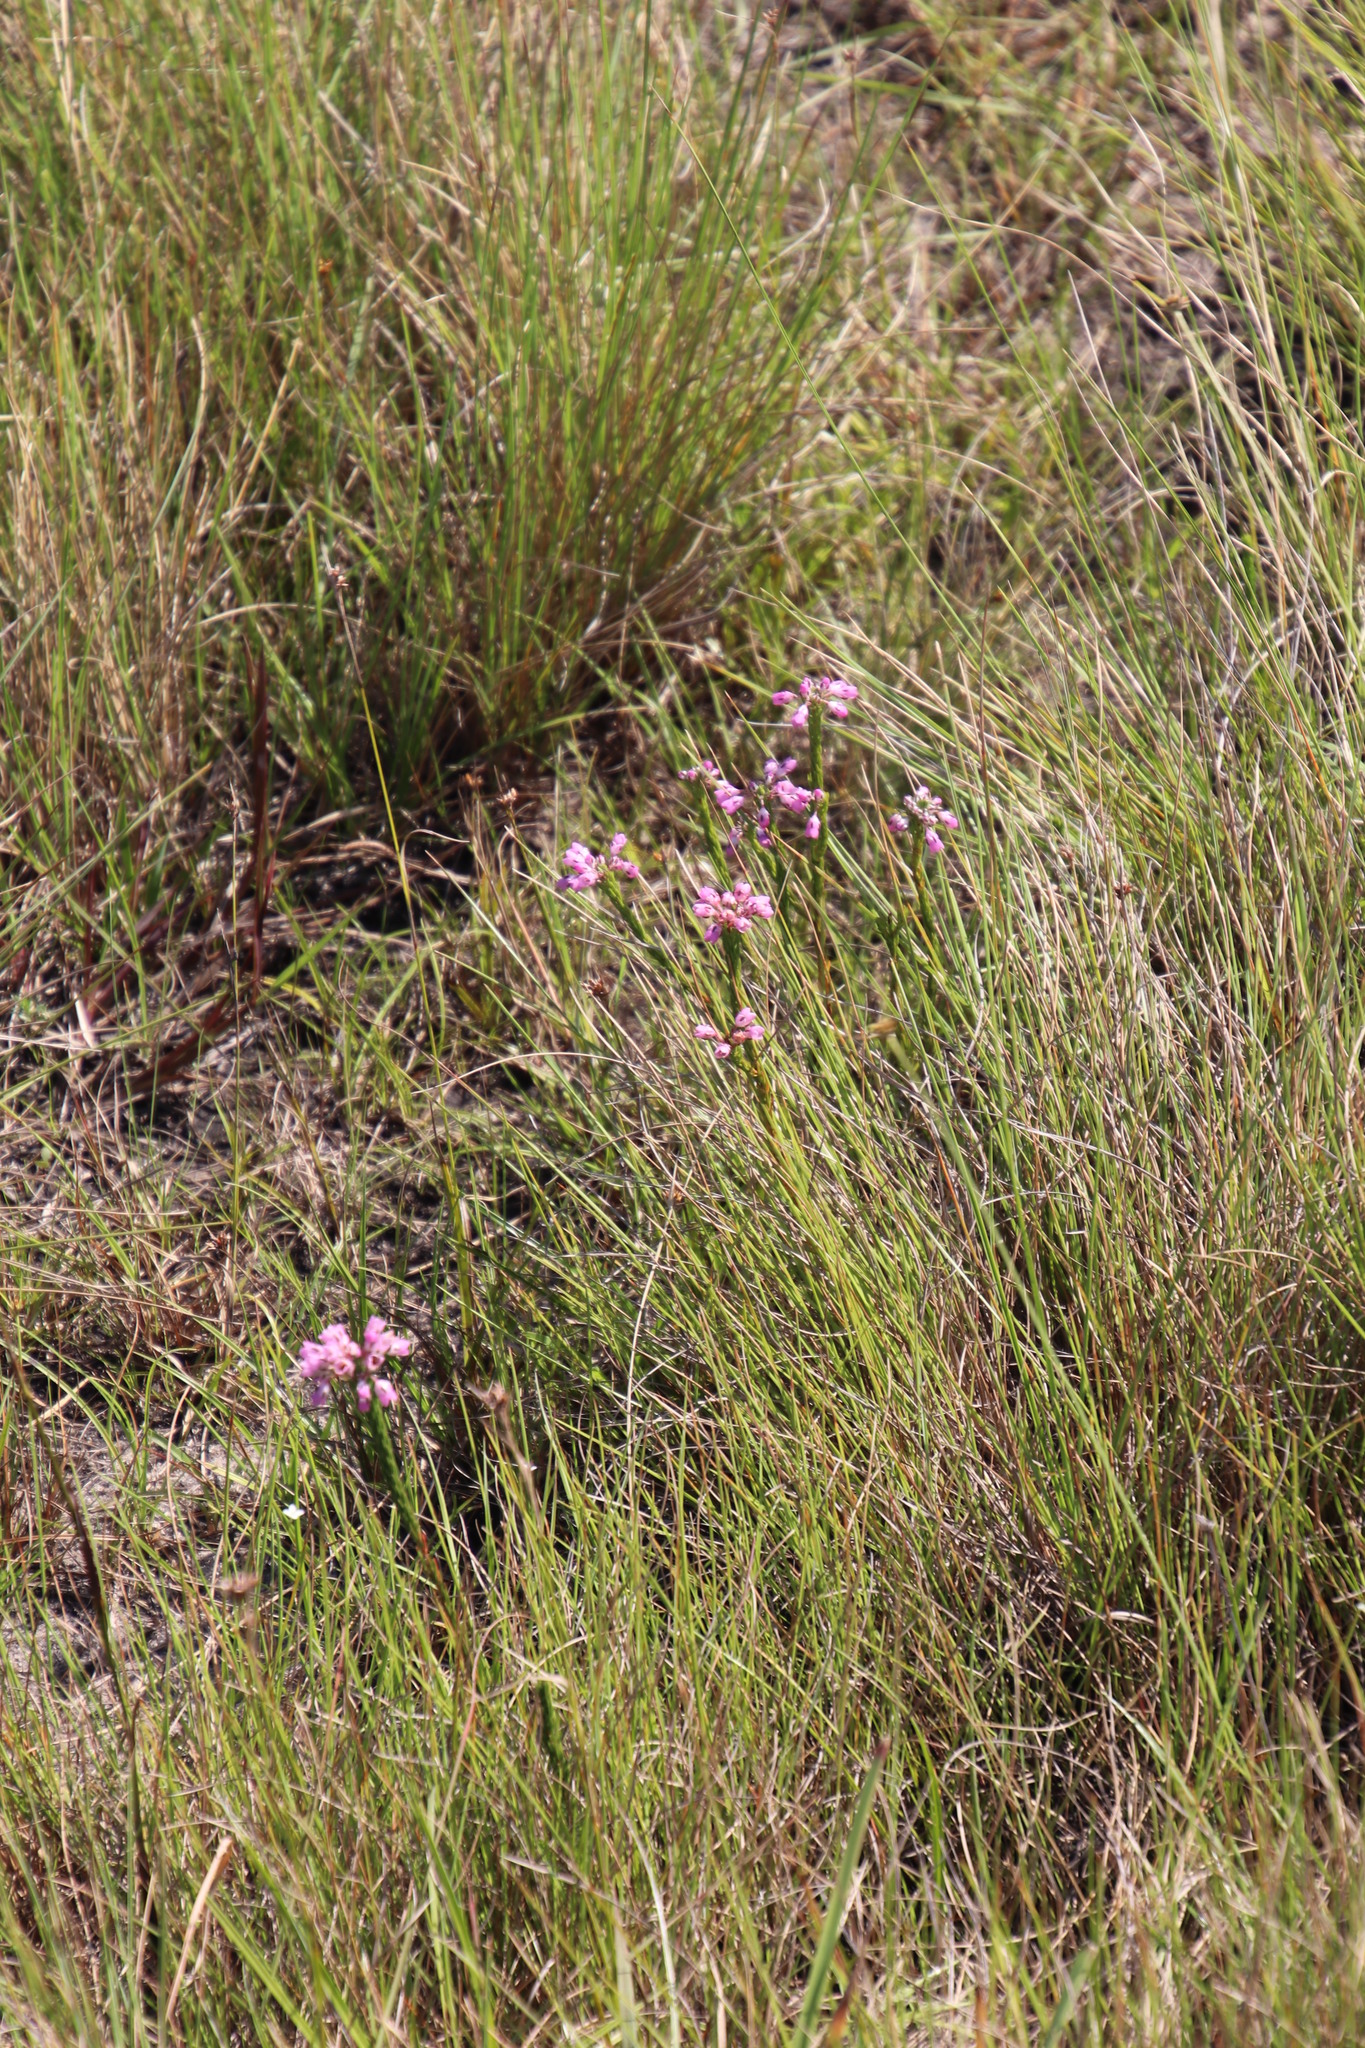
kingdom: Plantae
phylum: Tracheophyta
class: Magnoliopsida
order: Ericales
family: Ericaceae
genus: Erica
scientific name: Erica cubica
